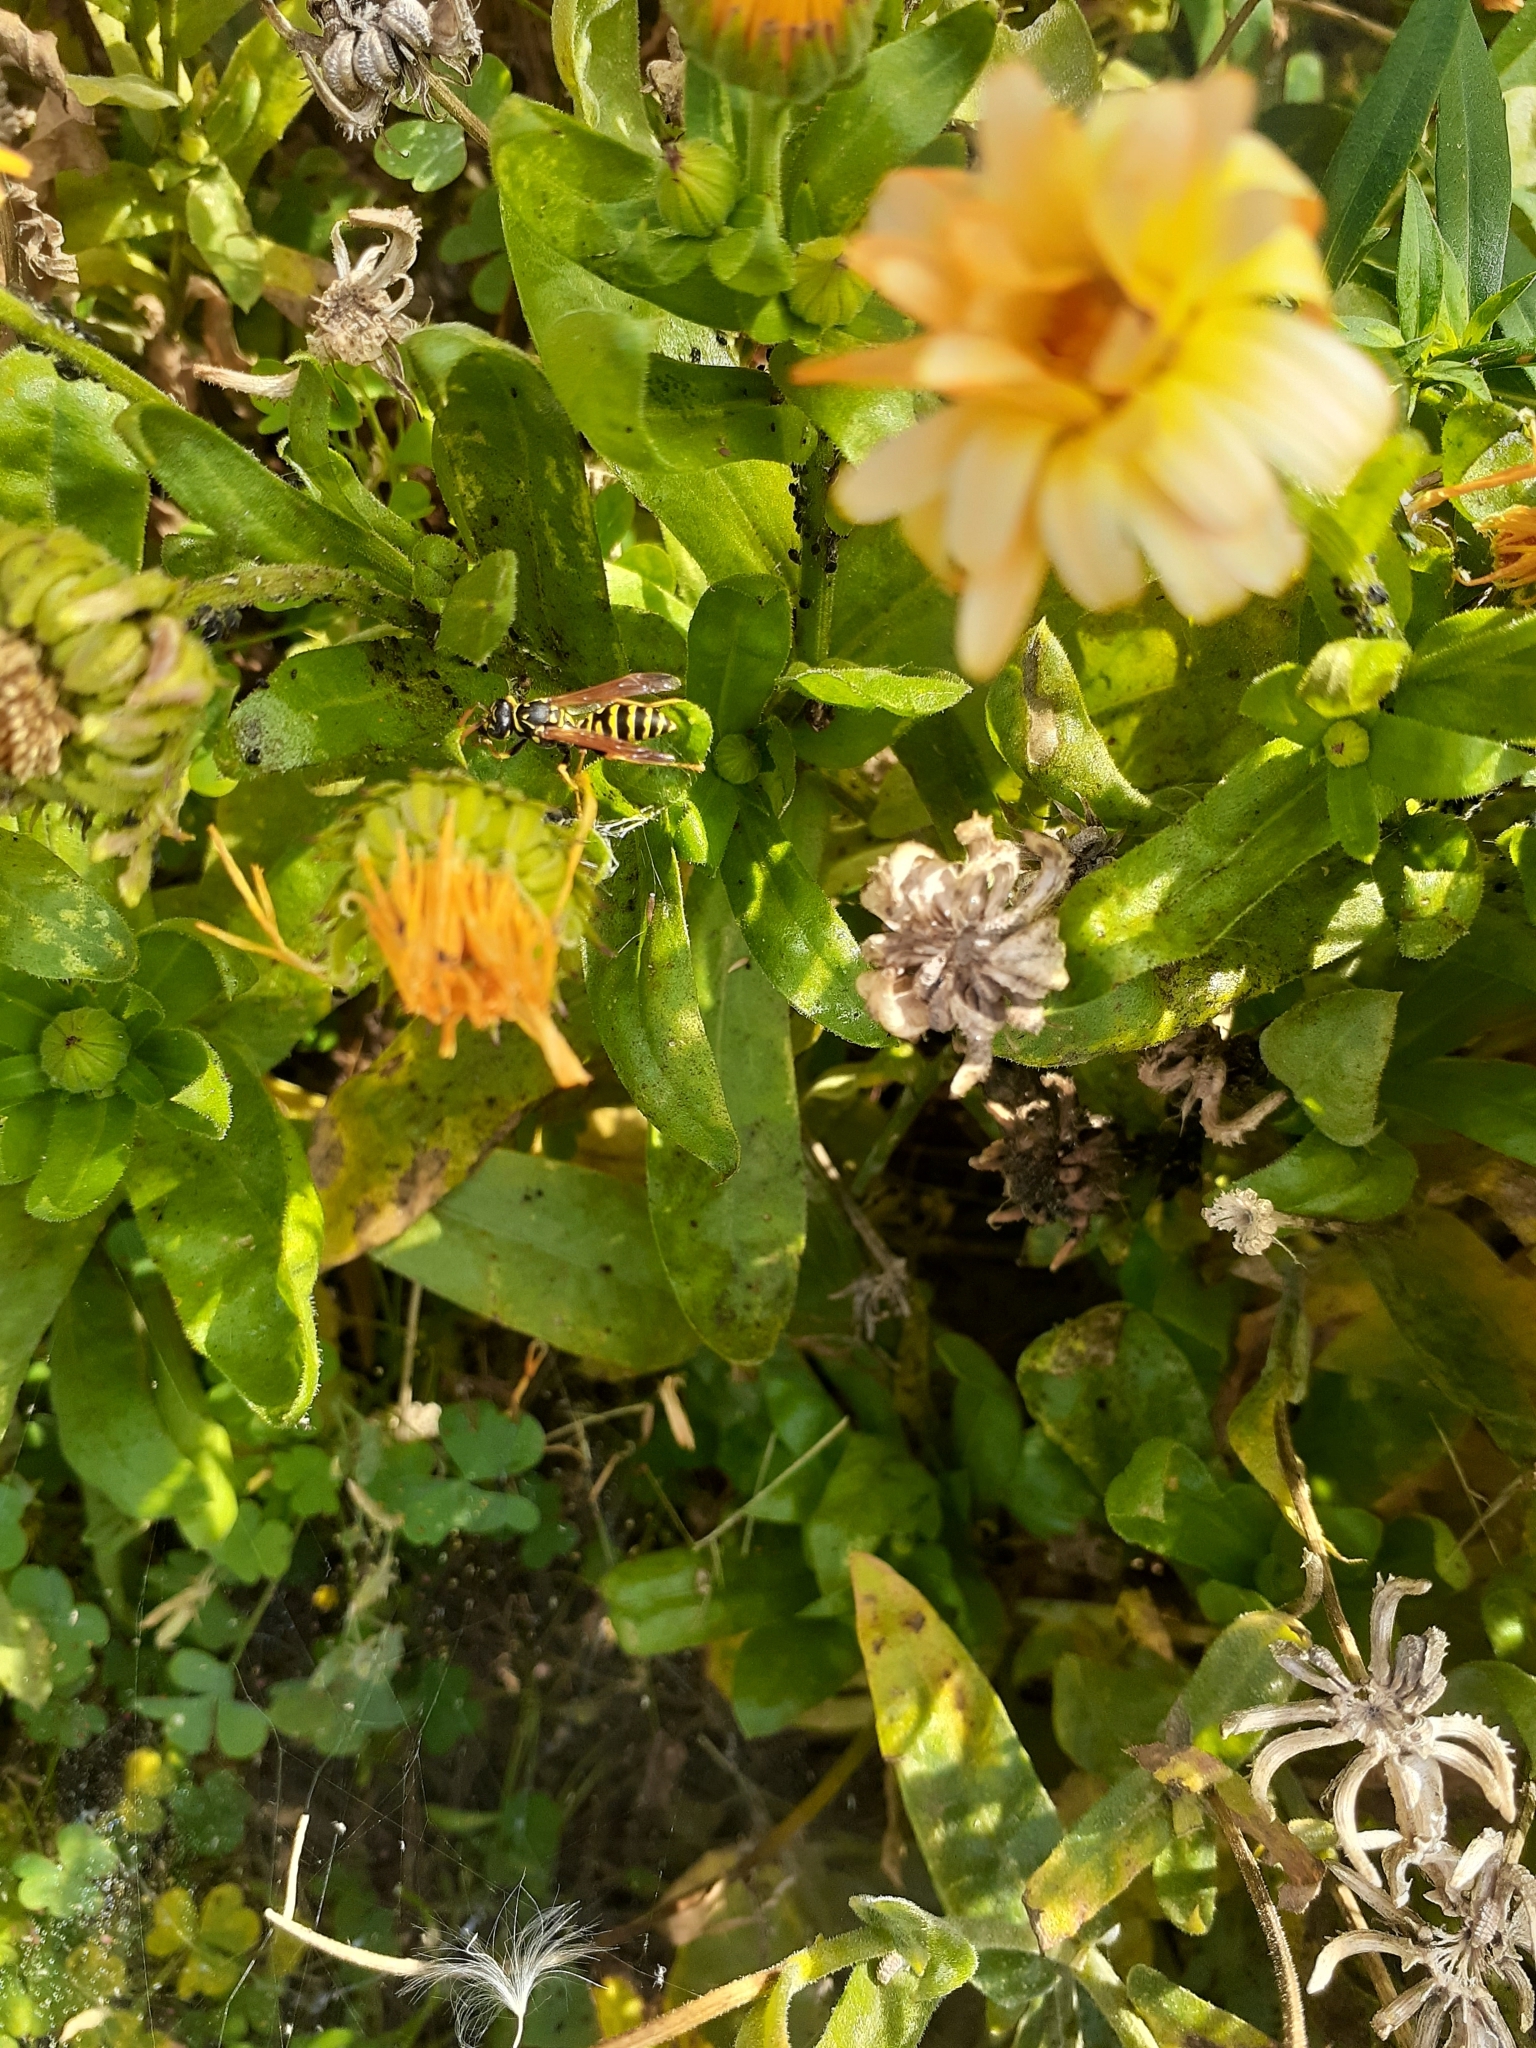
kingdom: Animalia
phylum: Arthropoda
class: Insecta
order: Hymenoptera
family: Eumenidae
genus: Polistes
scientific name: Polistes dominula
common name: Paper wasp
